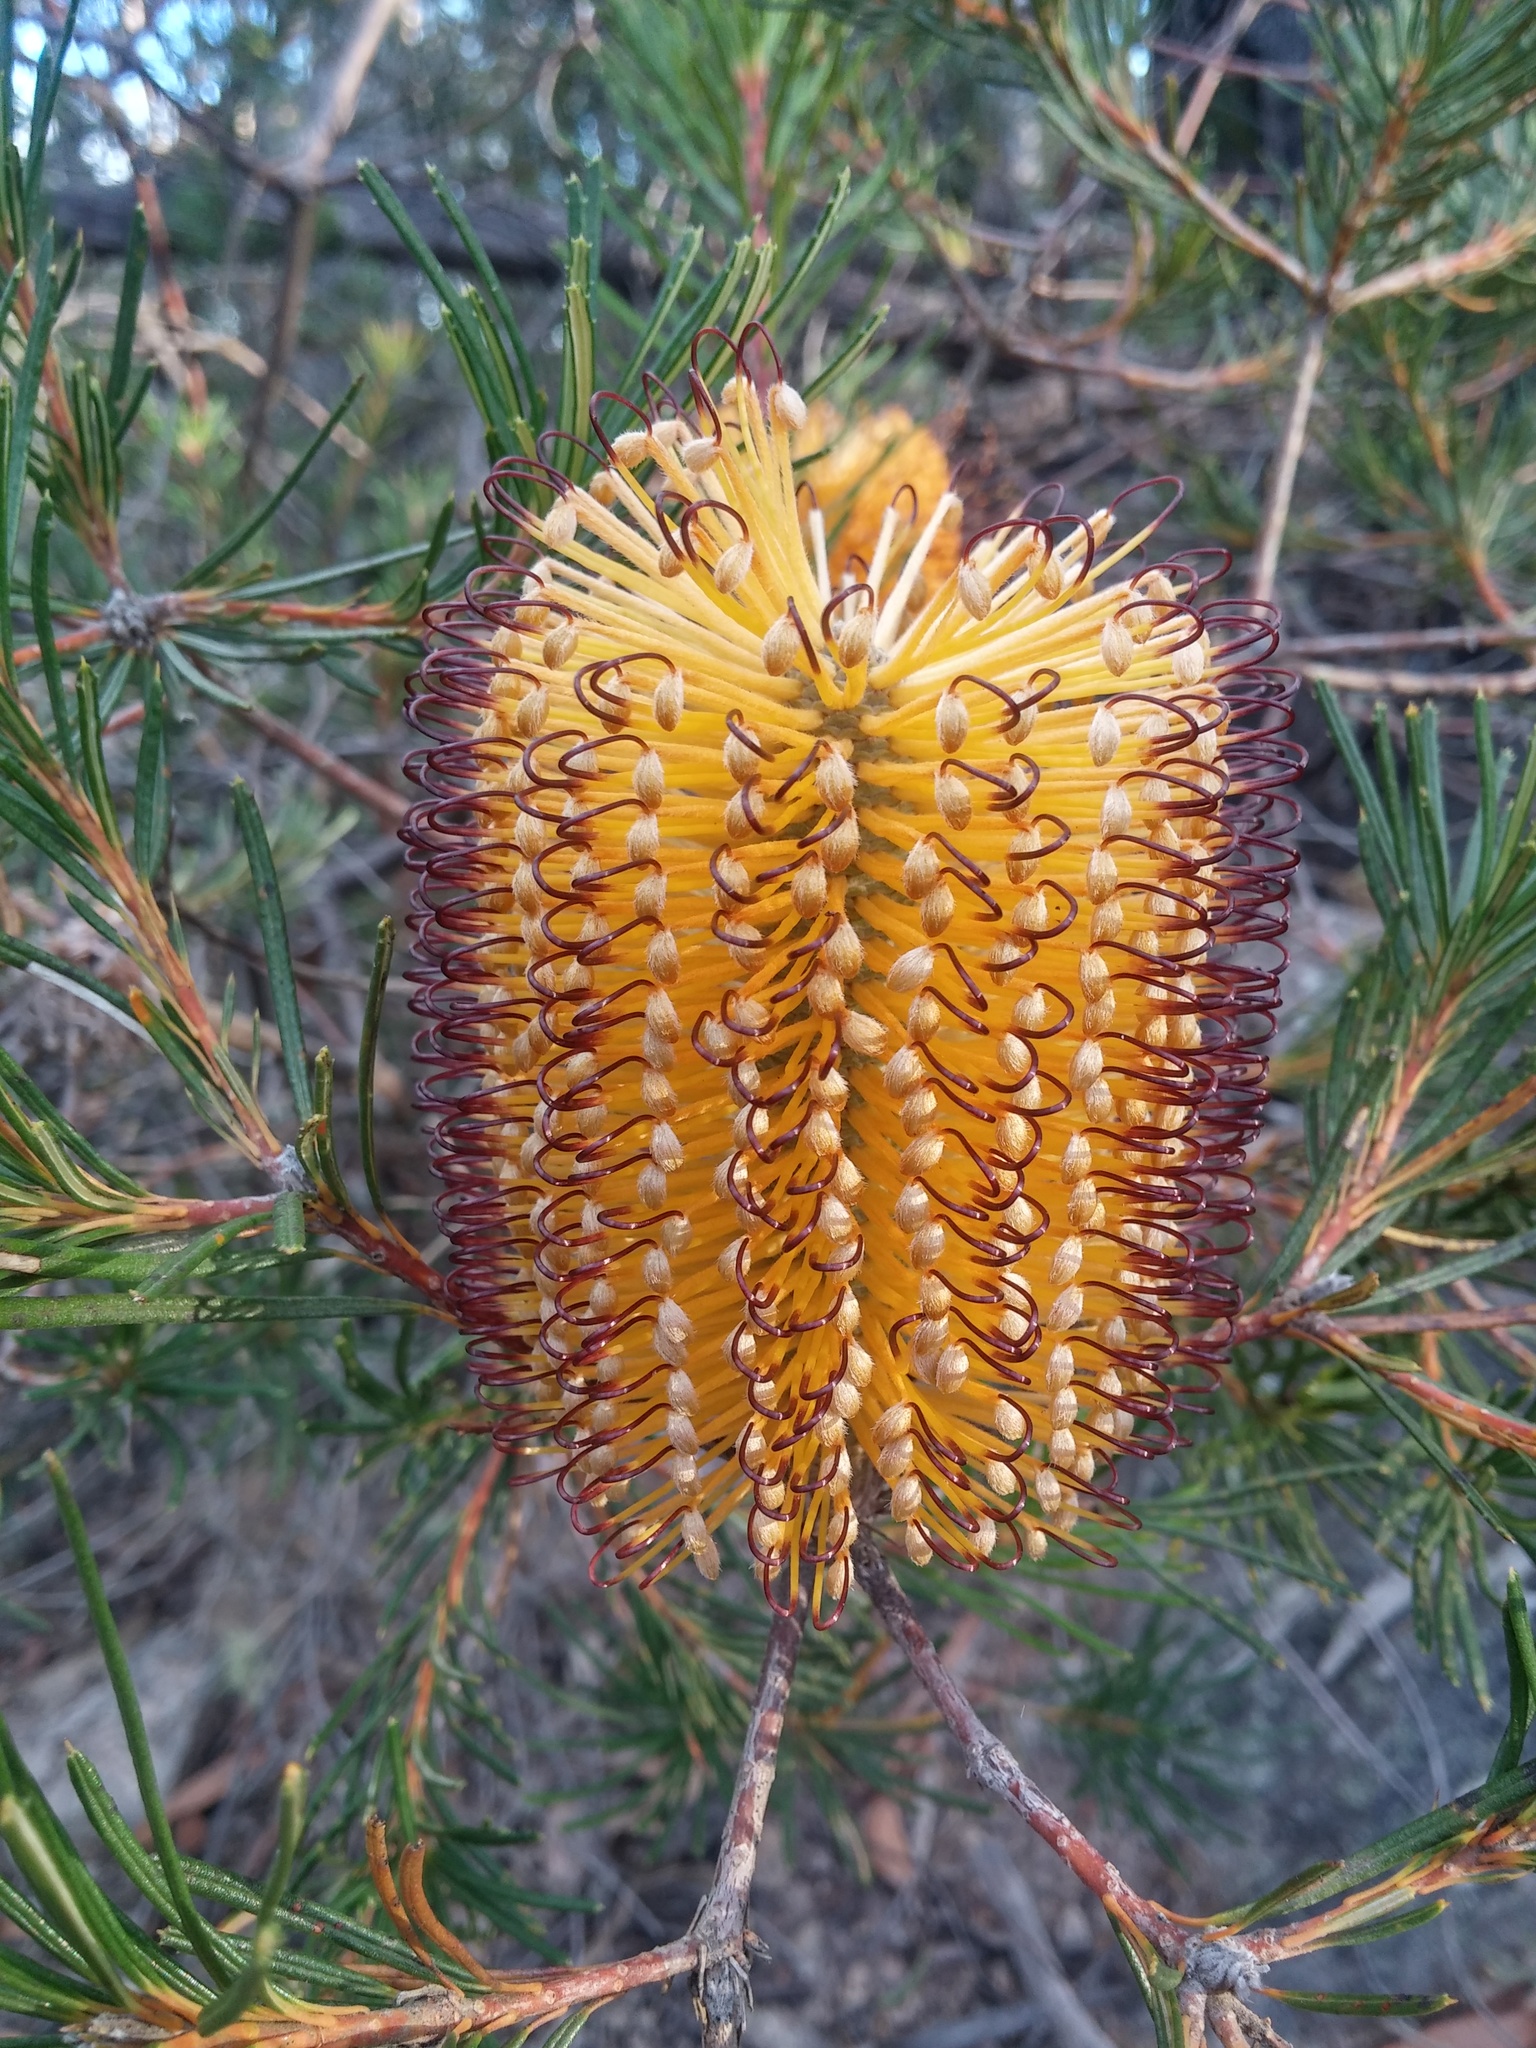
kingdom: Plantae
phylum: Tracheophyta
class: Magnoliopsida
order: Proteales
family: Proteaceae
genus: Banksia
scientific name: Banksia spinulosa
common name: Hairpin banksia
